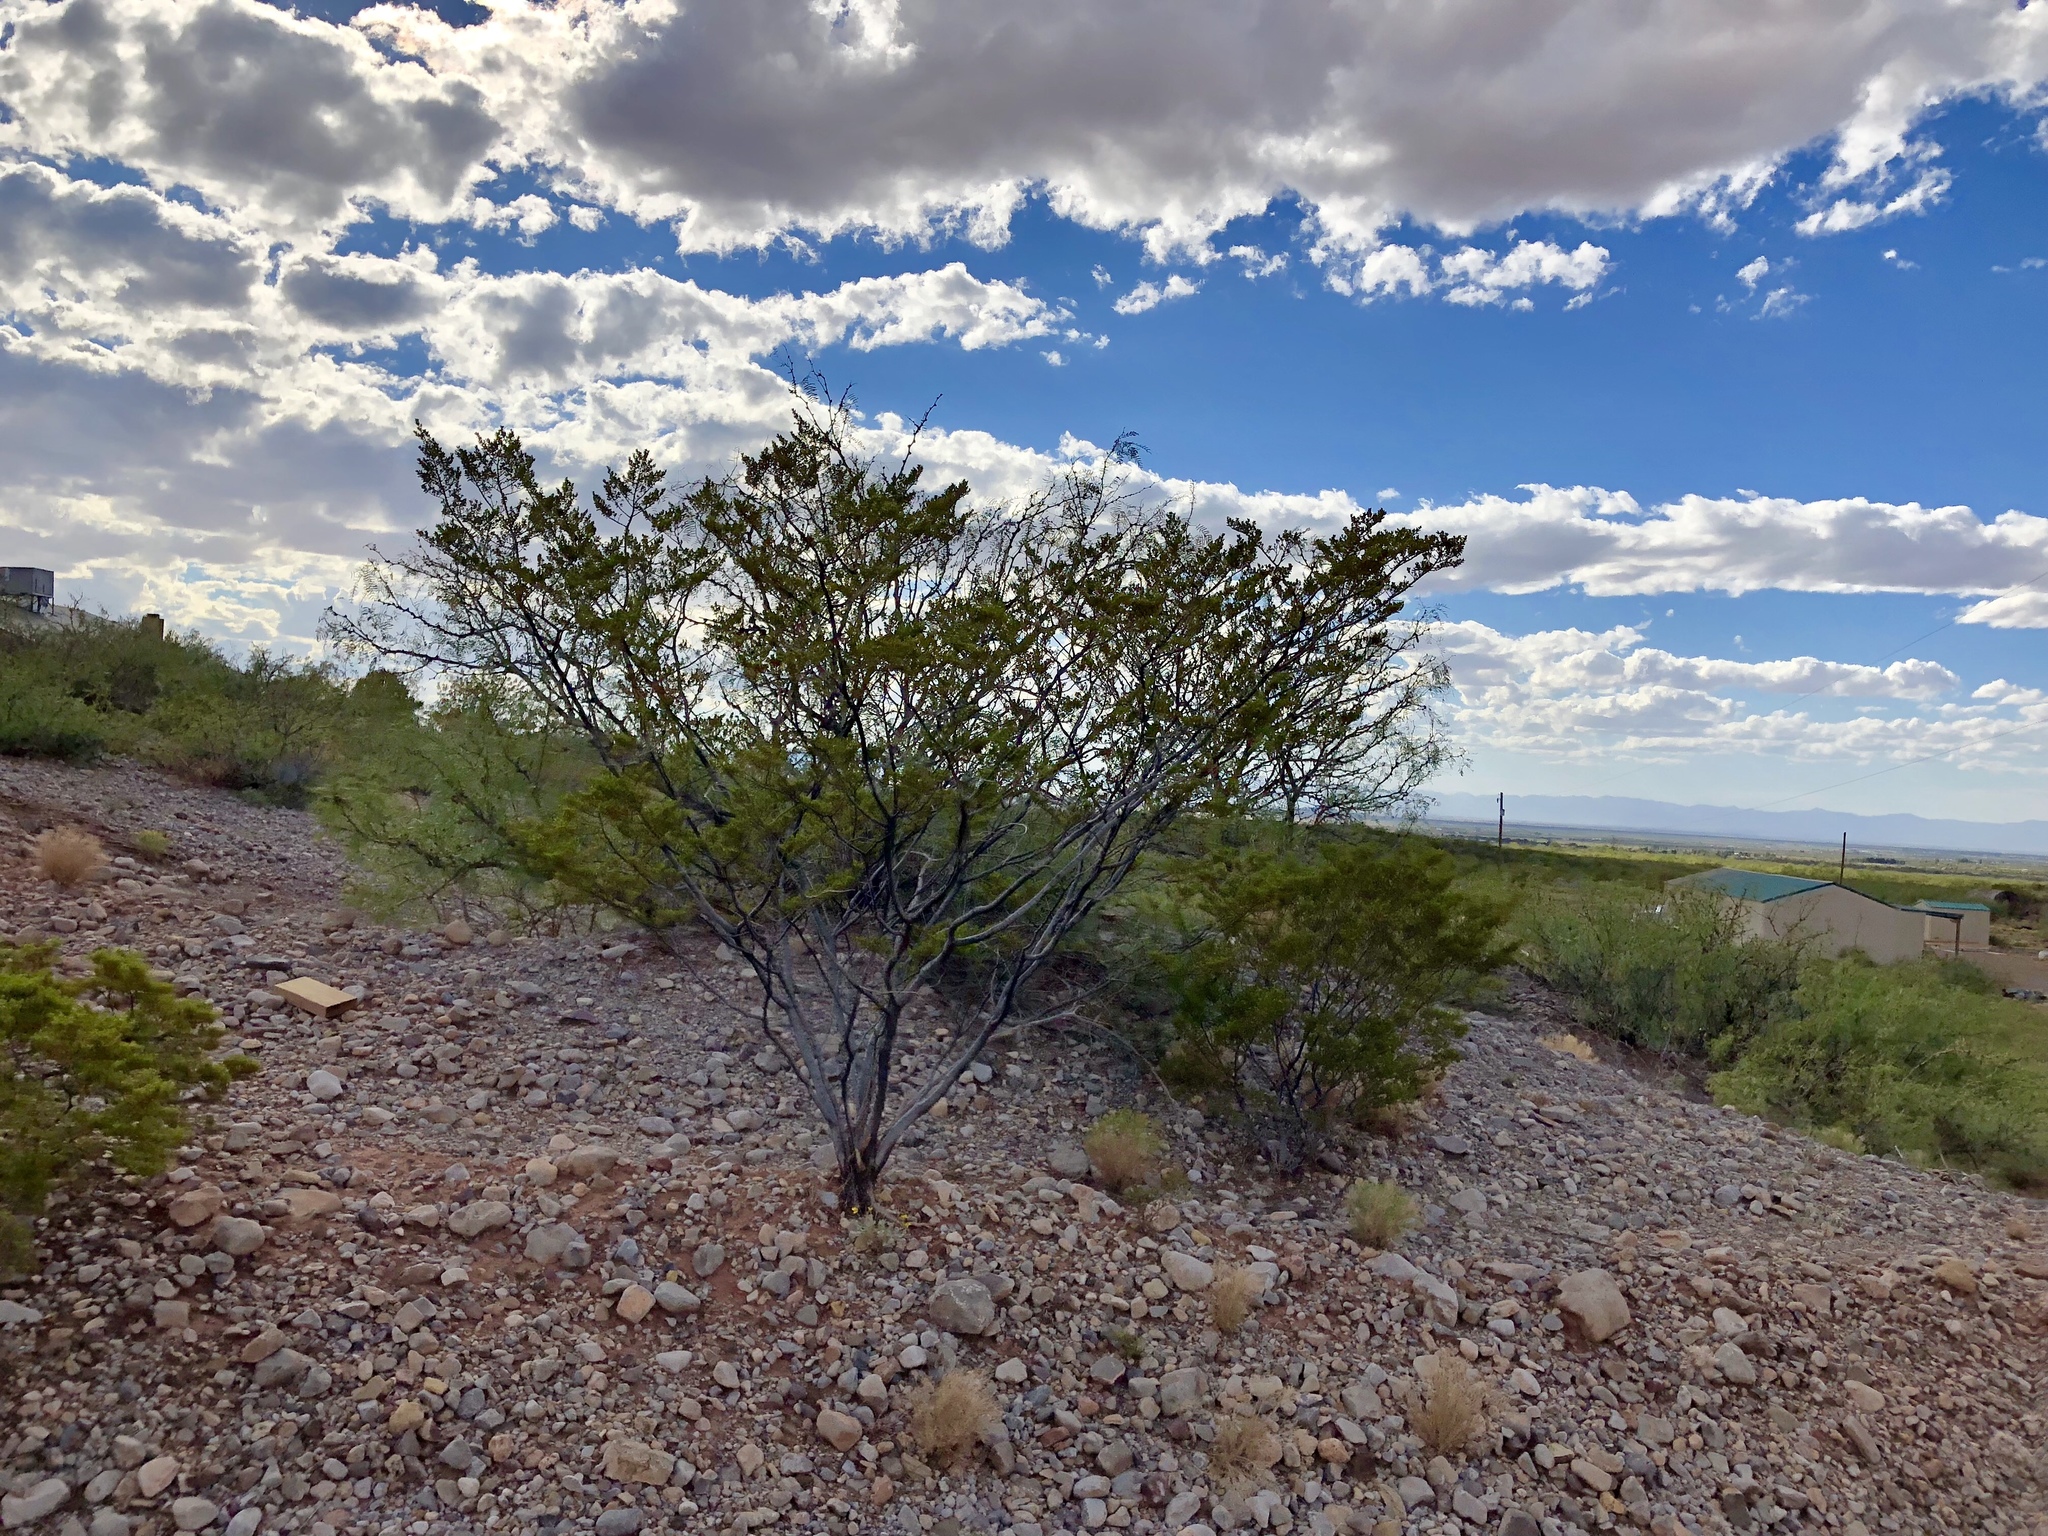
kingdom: Plantae
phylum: Tracheophyta
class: Magnoliopsida
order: Zygophyllales
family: Zygophyllaceae
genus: Larrea
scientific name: Larrea tridentata
